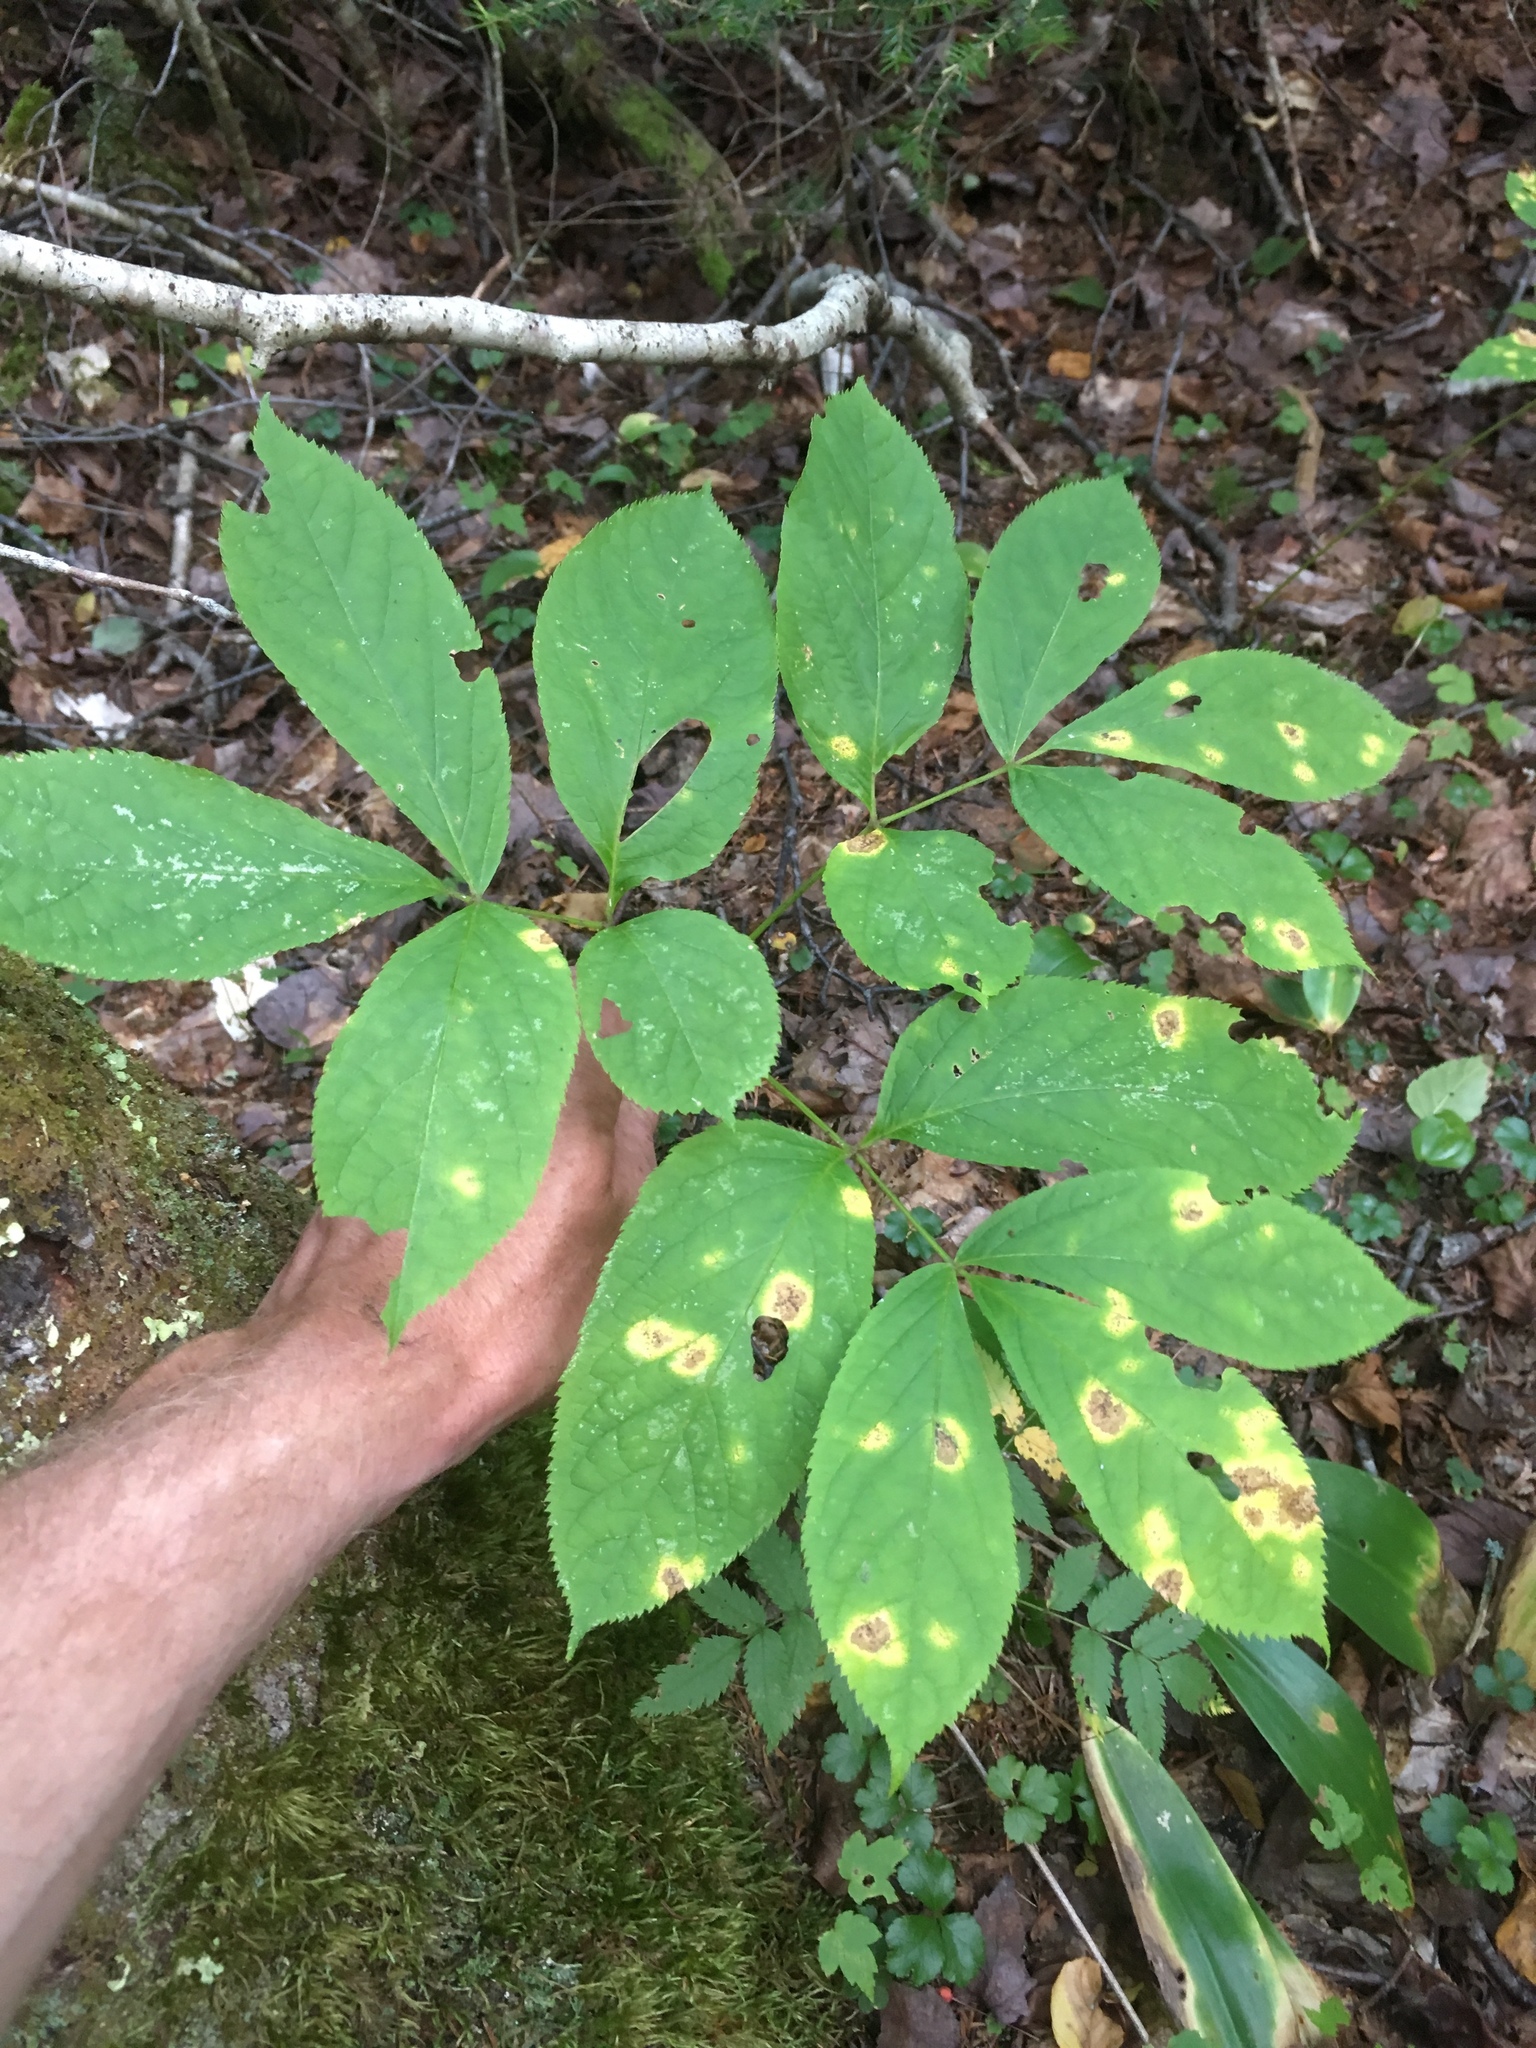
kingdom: Plantae
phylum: Tracheophyta
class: Magnoliopsida
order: Apiales
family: Araliaceae
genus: Aralia
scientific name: Aralia nudicaulis
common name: Wild sarsaparilla
